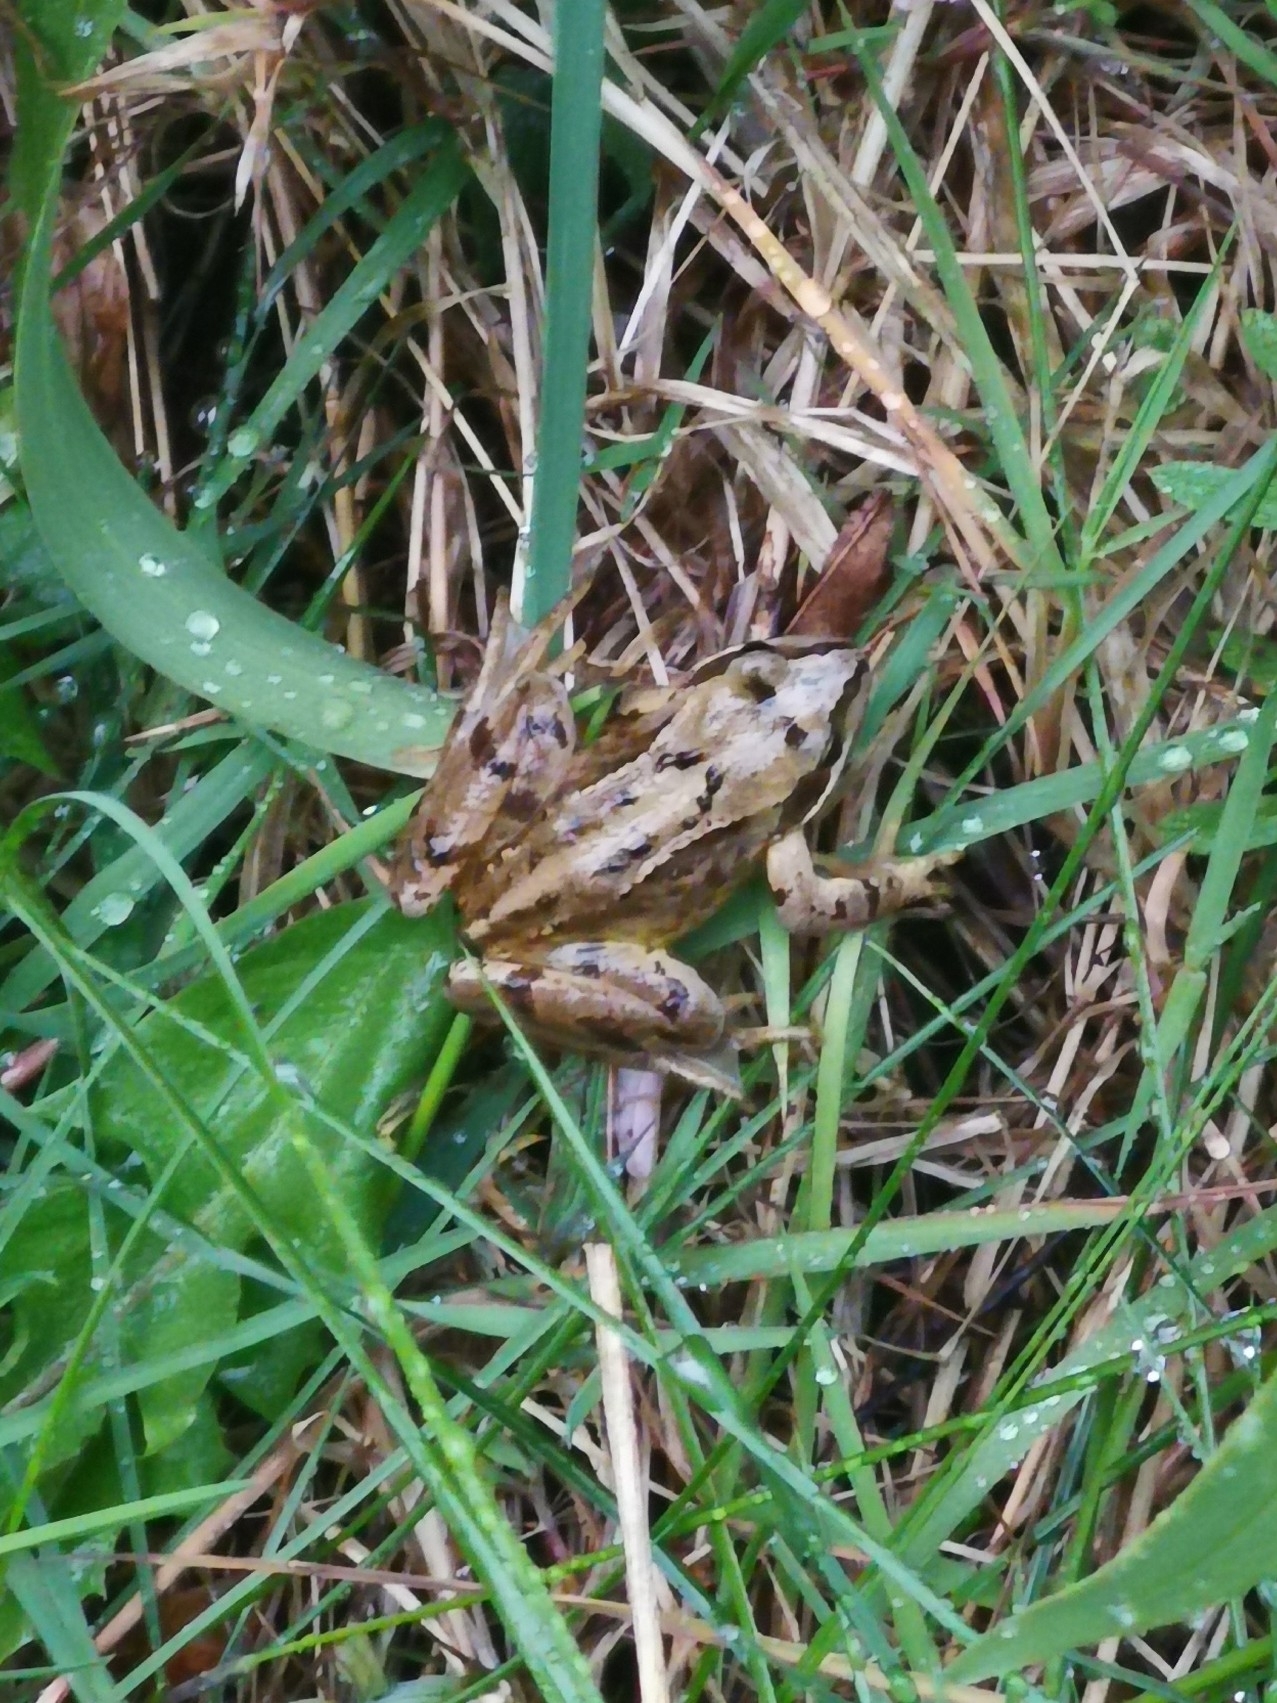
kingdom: Animalia
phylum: Chordata
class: Amphibia
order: Anura
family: Ranidae
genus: Rana
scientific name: Rana temporaria
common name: Common frog
